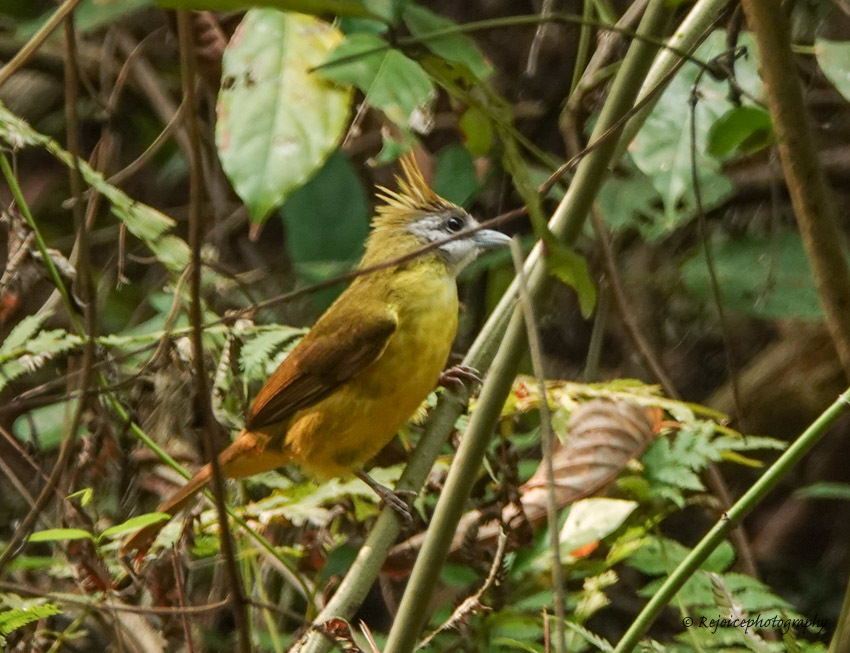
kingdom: Animalia
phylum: Chordata
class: Aves
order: Passeriformes
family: Pycnonotidae
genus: Alophoixus
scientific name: Alophoixus flaveolus
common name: White-throated bulbul
